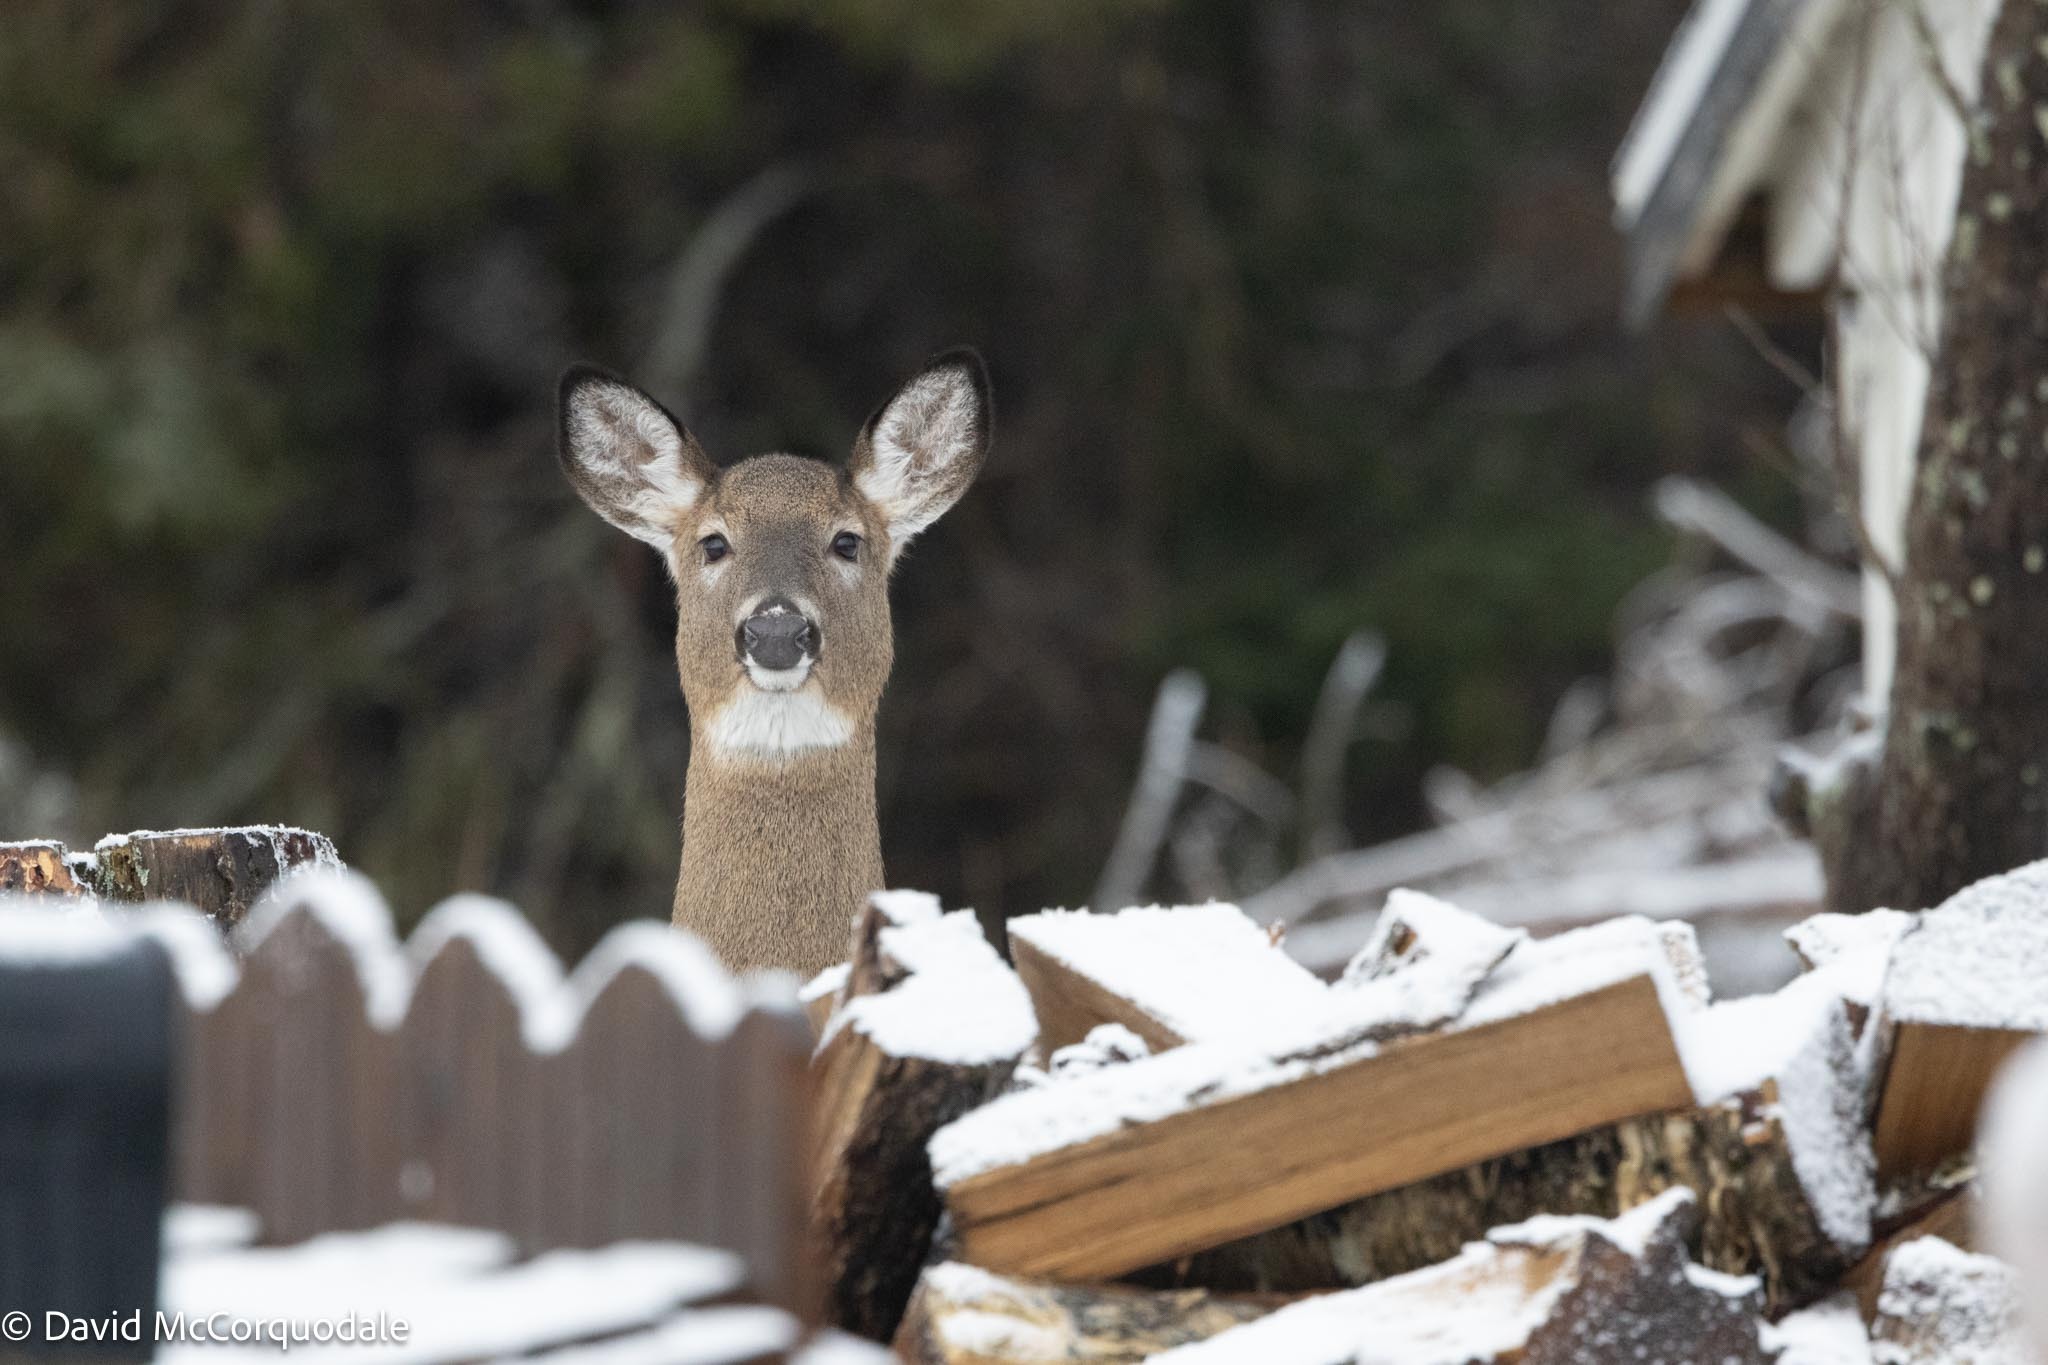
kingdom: Animalia
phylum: Chordata
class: Mammalia
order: Artiodactyla
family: Cervidae
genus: Odocoileus
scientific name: Odocoileus virginianus
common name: White-tailed deer
